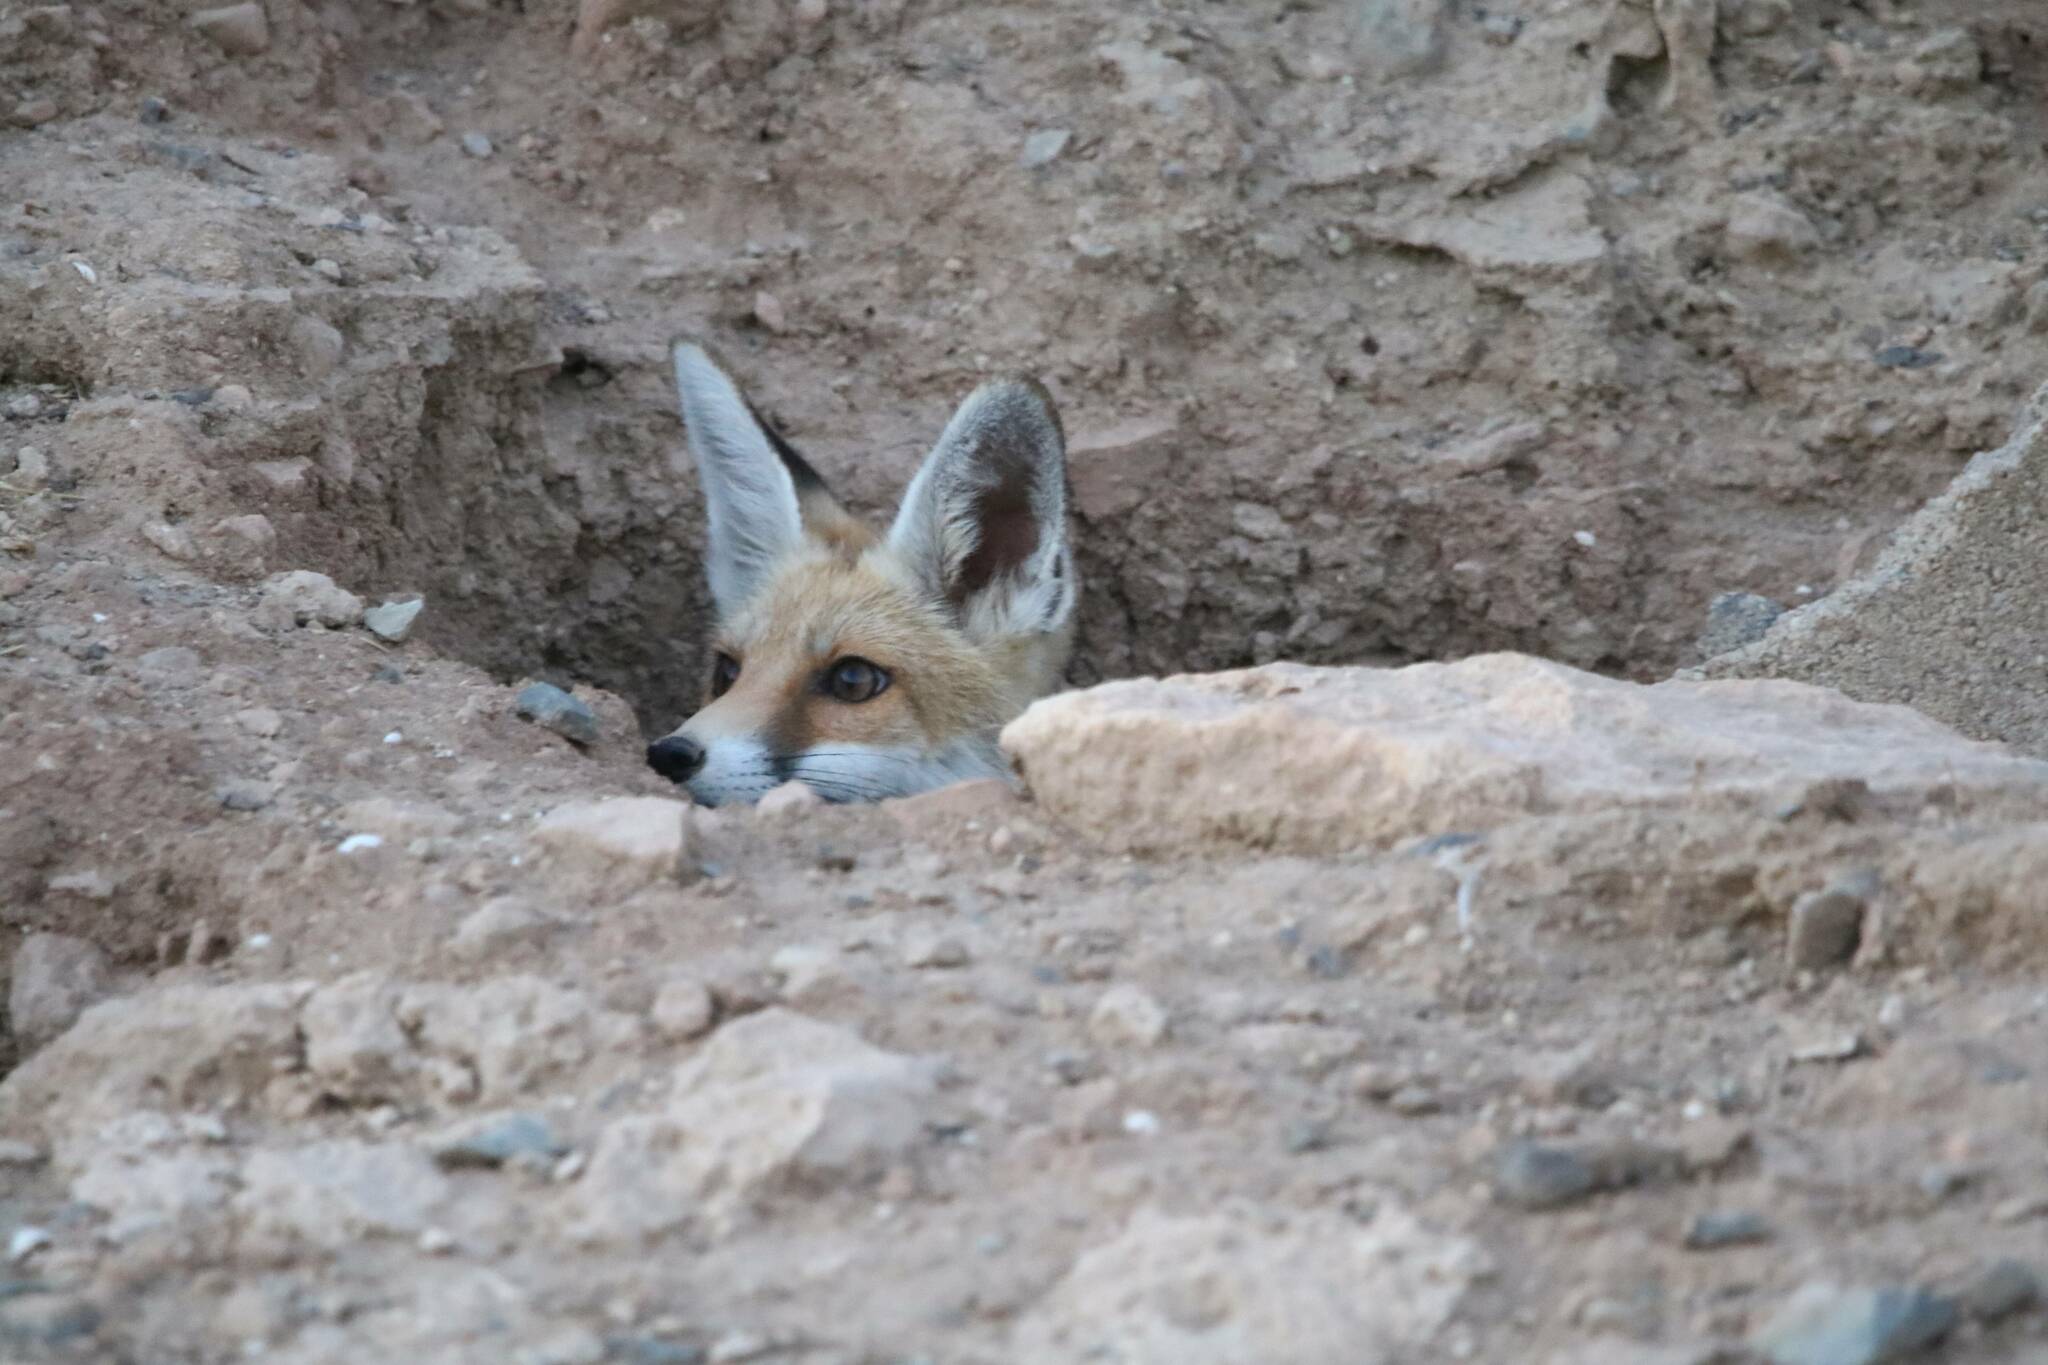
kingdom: Animalia
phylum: Chordata
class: Mammalia
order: Carnivora
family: Canidae
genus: Vulpes
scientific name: Vulpes vulpes
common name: Red fox
